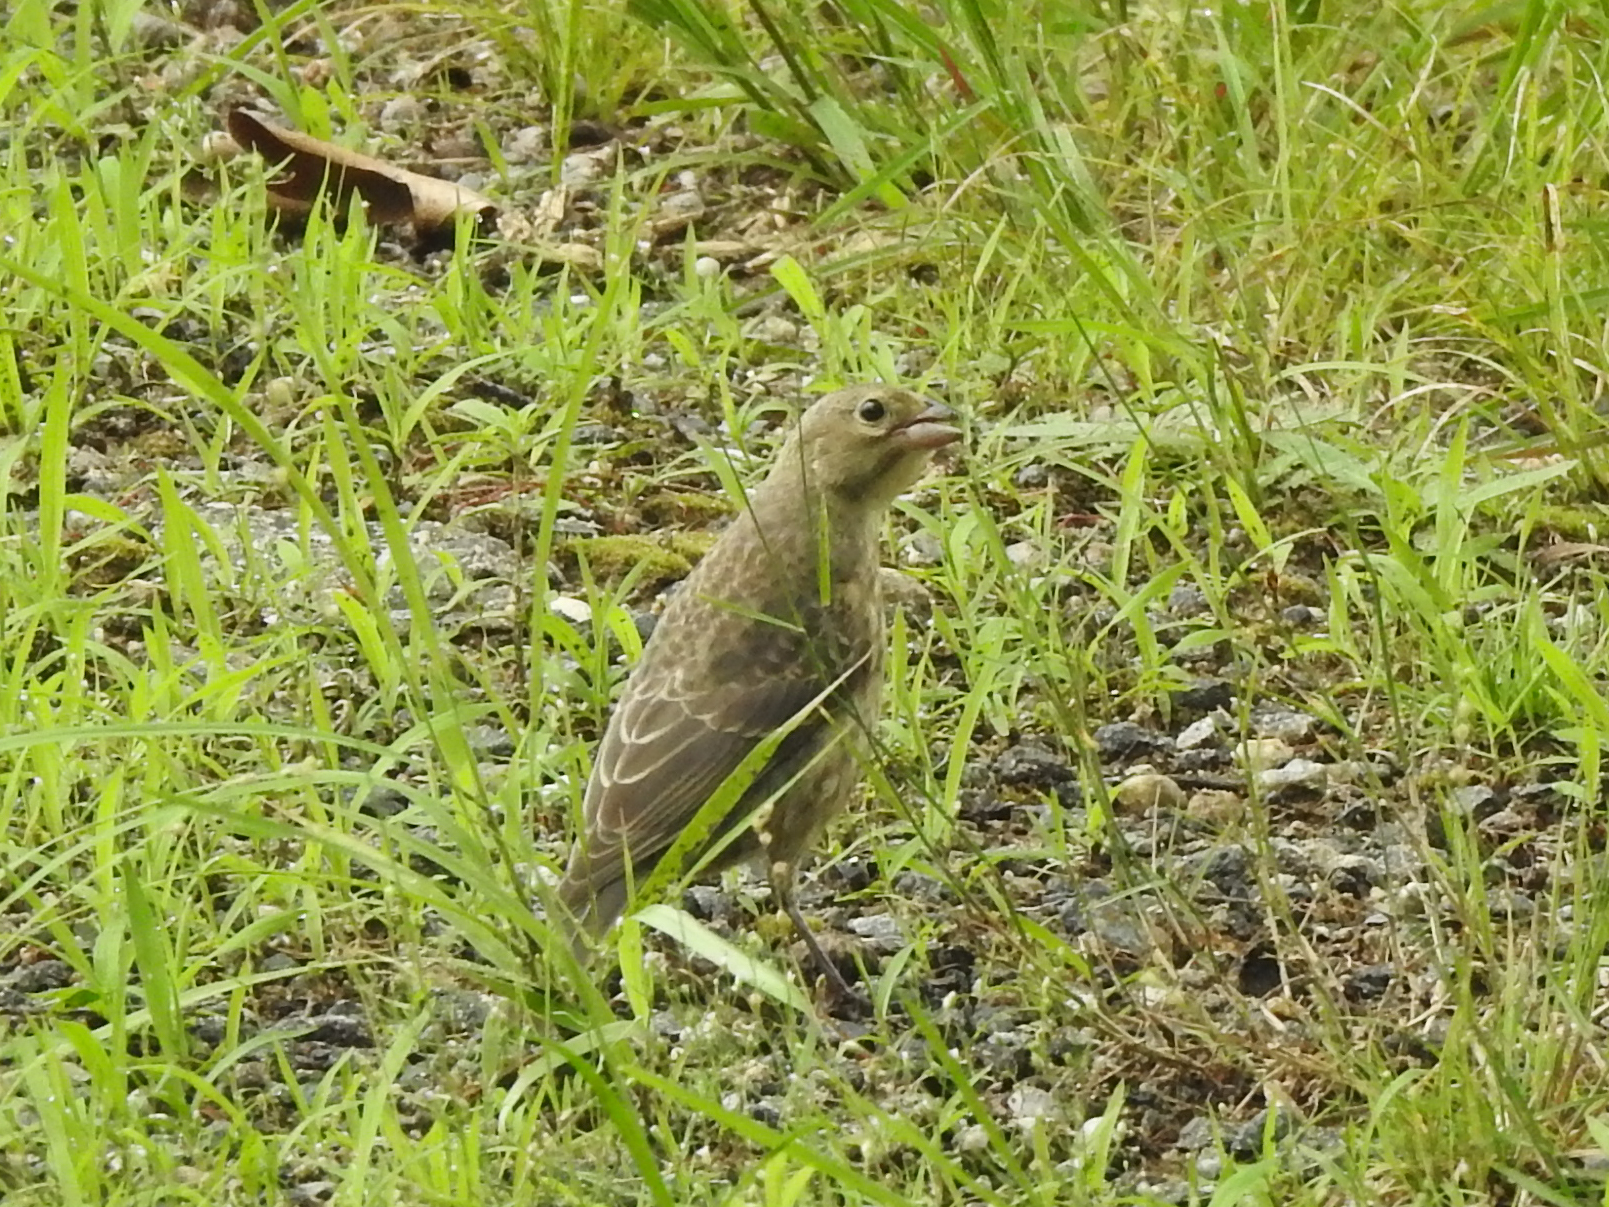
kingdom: Animalia
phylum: Chordata
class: Aves
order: Passeriformes
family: Icteridae
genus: Molothrus
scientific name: Molothrus ater
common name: Brown-headed cowbird
